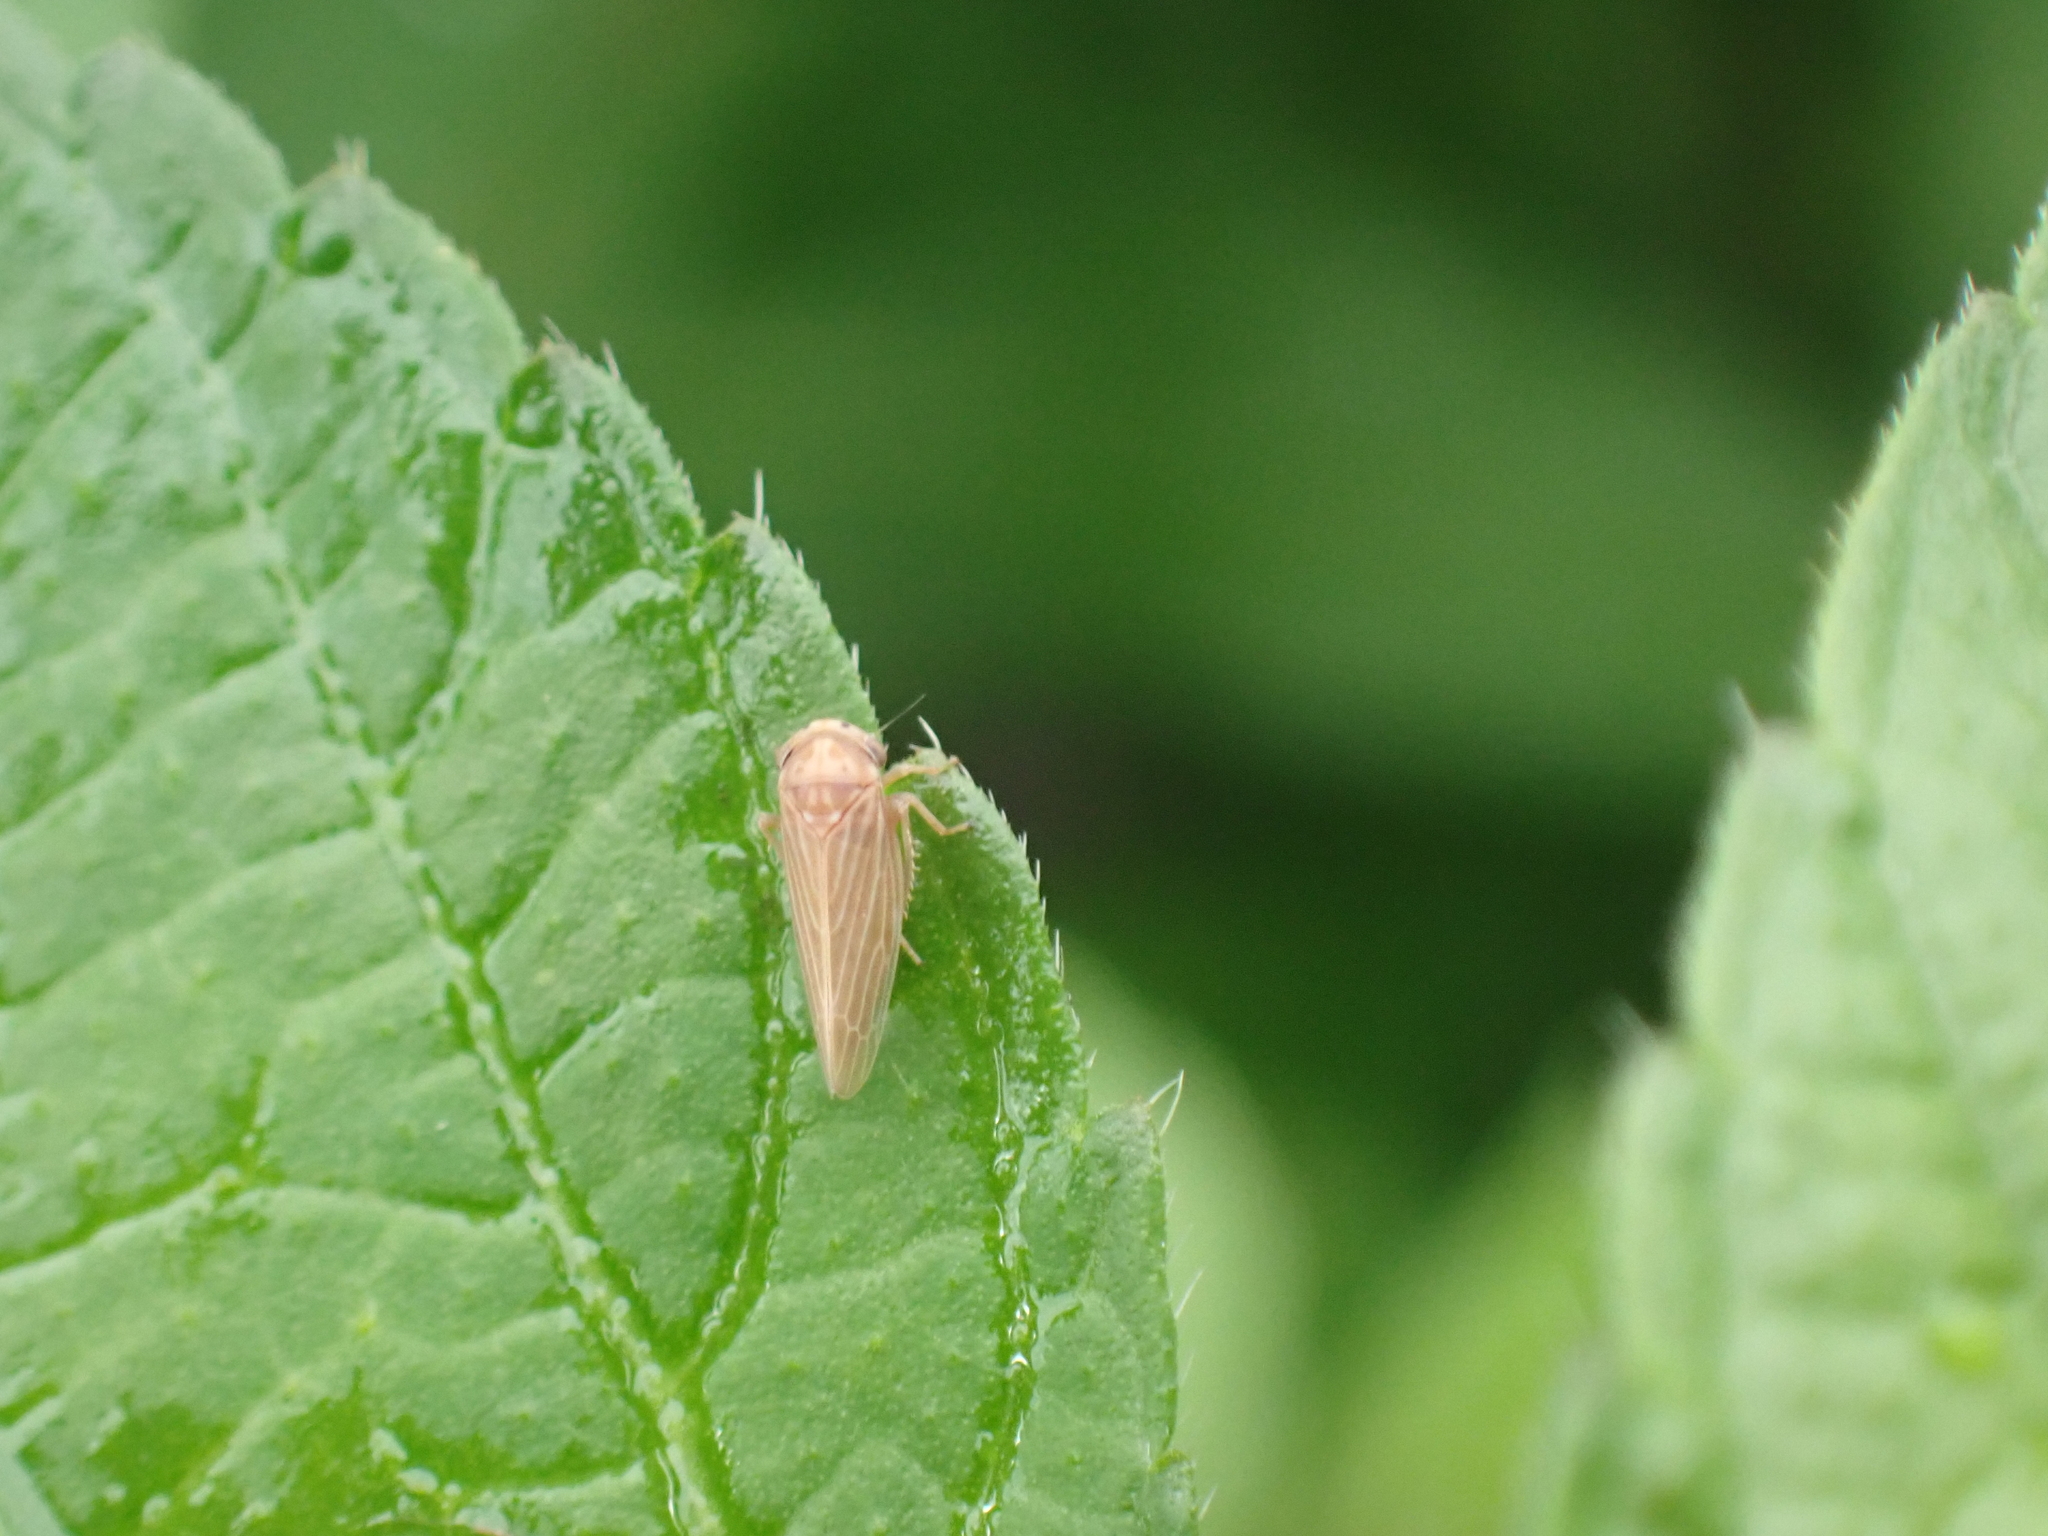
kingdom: Animalia
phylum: Arthropoda
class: Insecta
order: Hemiptera
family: Cicadellidae
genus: Agallia
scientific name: Agallia constricta
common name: The constricted leafhopper
